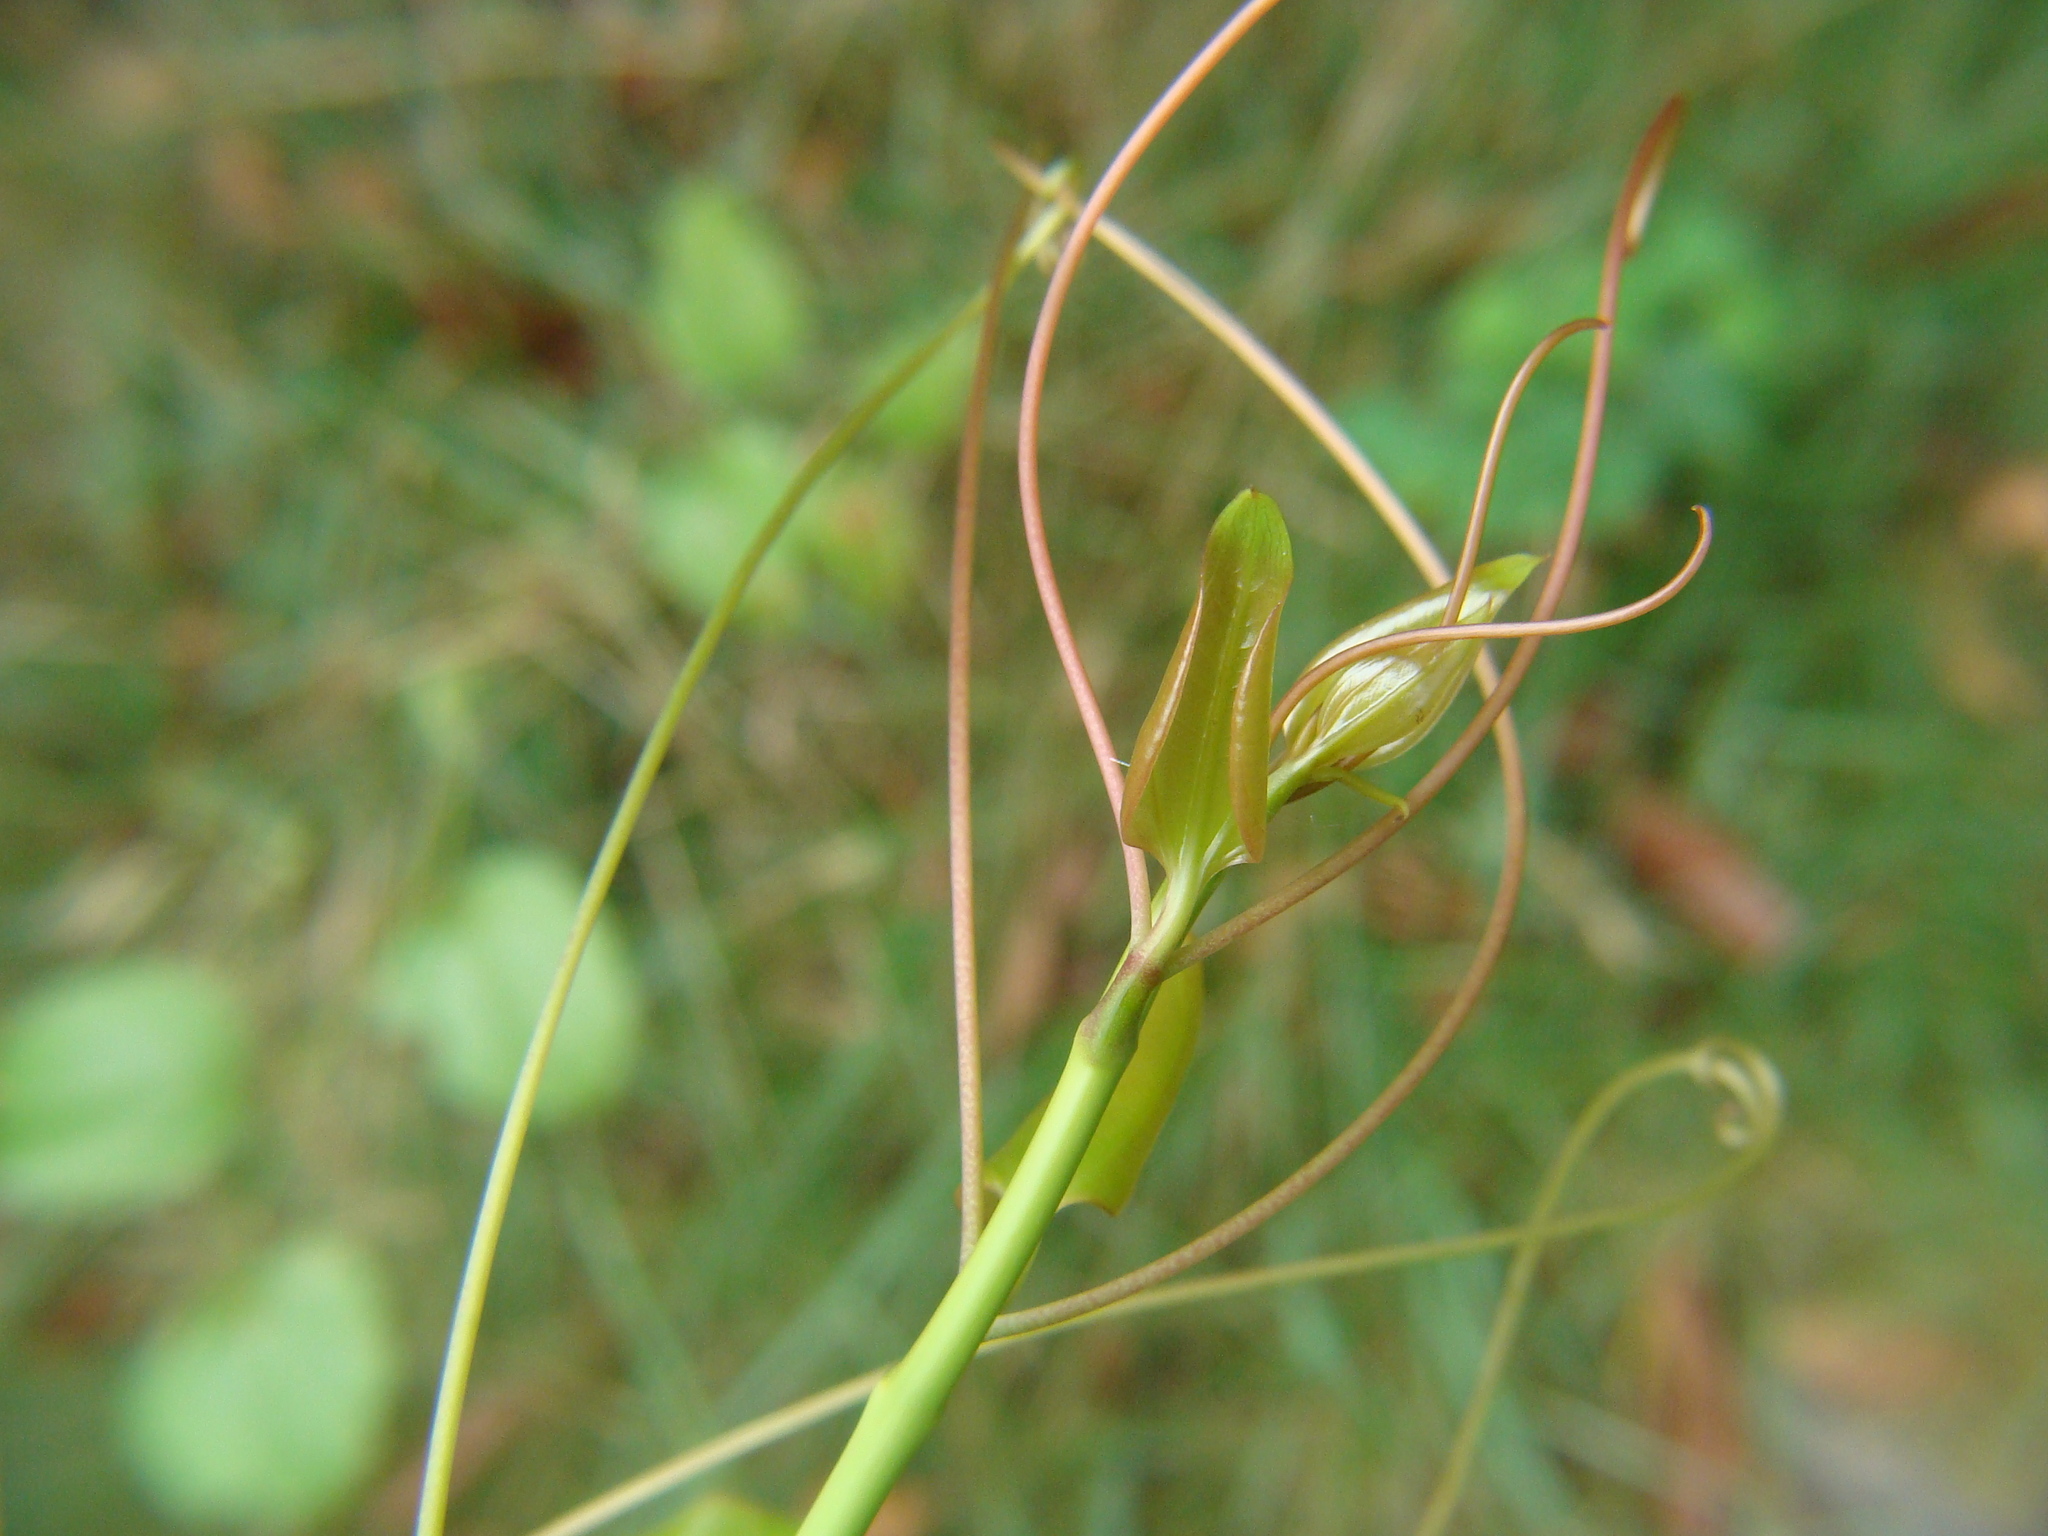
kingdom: Plantae
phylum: Tracheophyta
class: Liliopsida
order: Liliales
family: Smilacaceae
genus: Smilax
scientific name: Smilax rotundifolia
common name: Bullbriar
